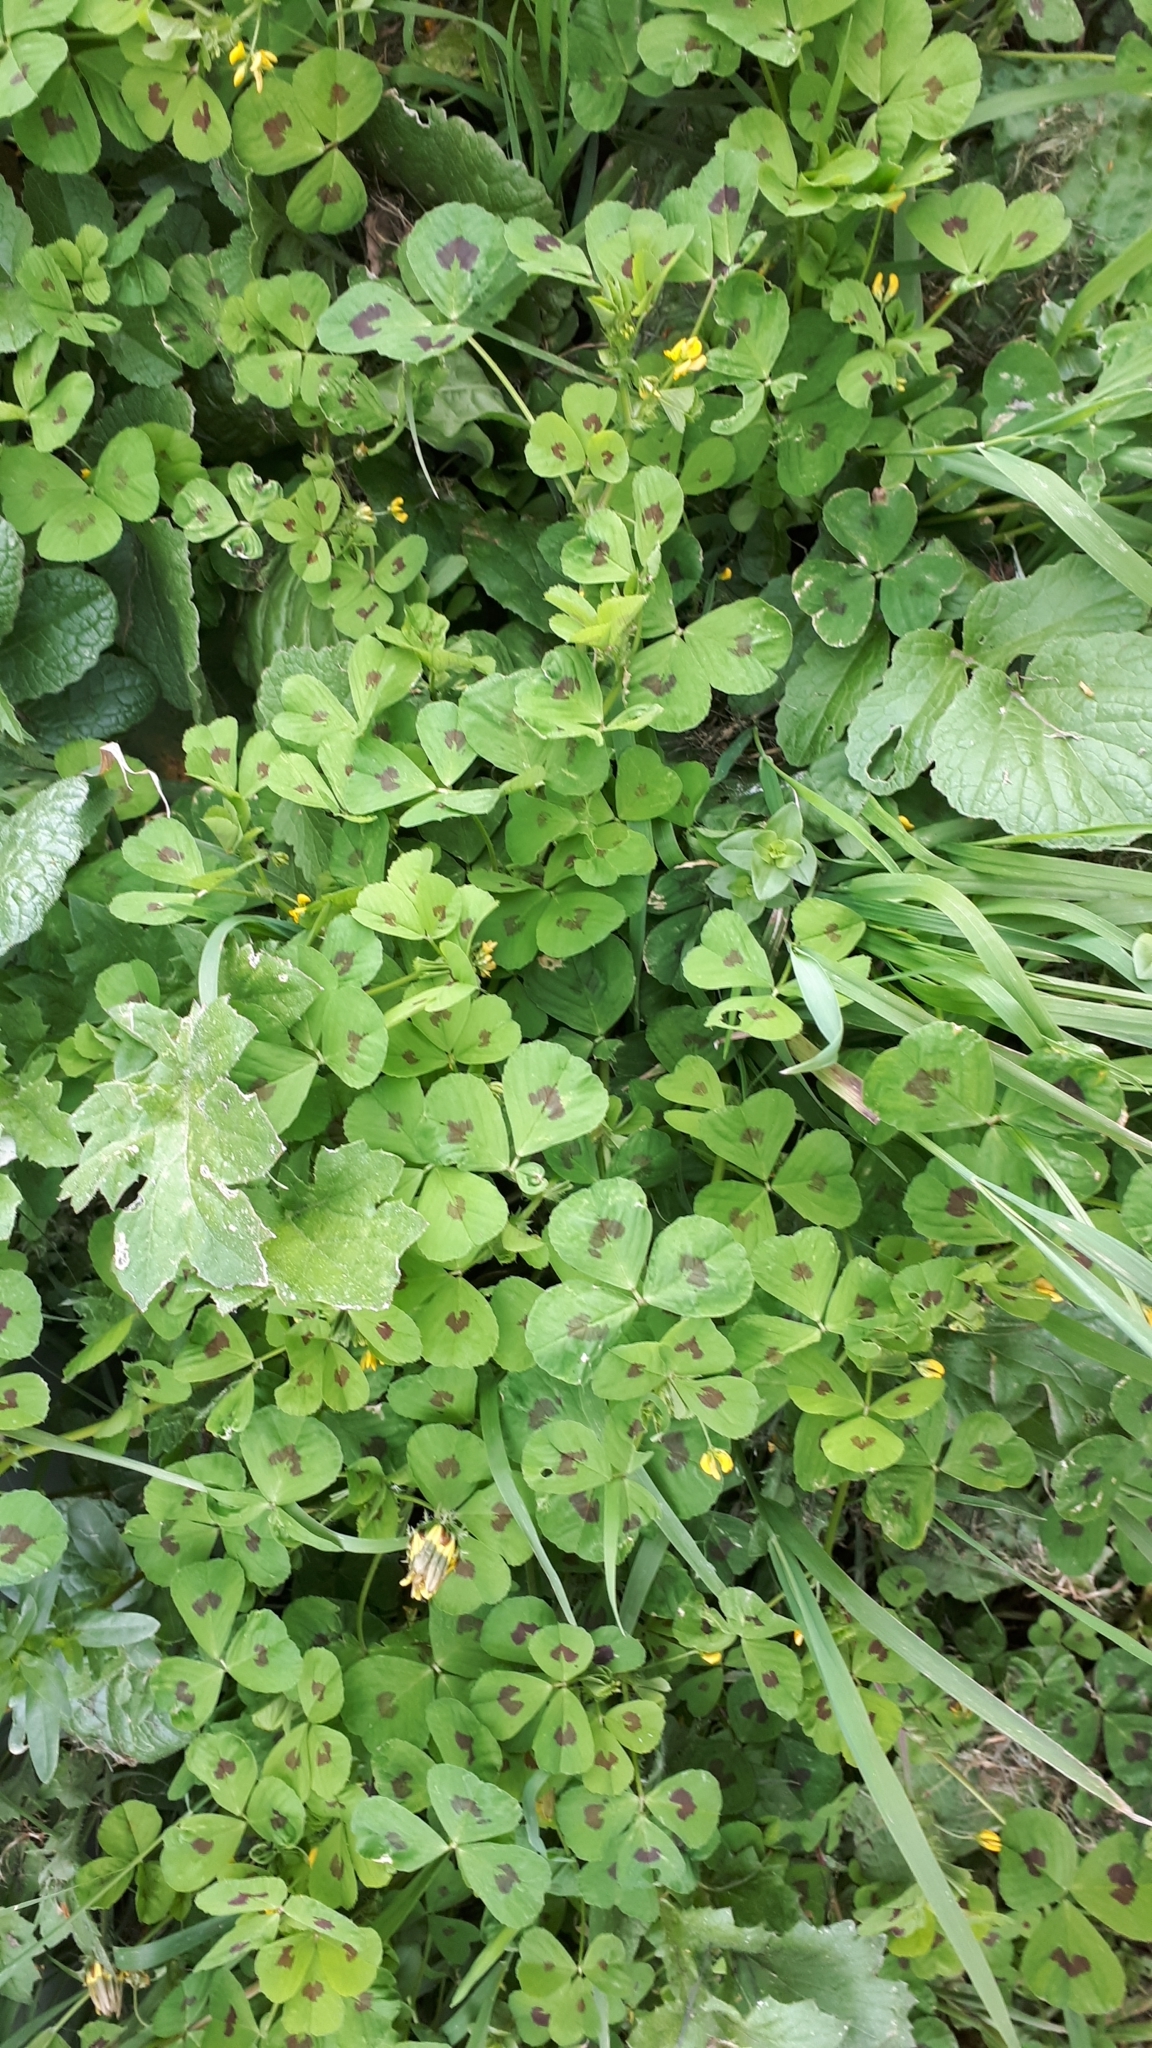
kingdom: Plantae
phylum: Tracheophyta
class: Magnoliopsida
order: Fabales
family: Fabaceae
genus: Medicago
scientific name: Medicago arabica
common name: Spotted medick
